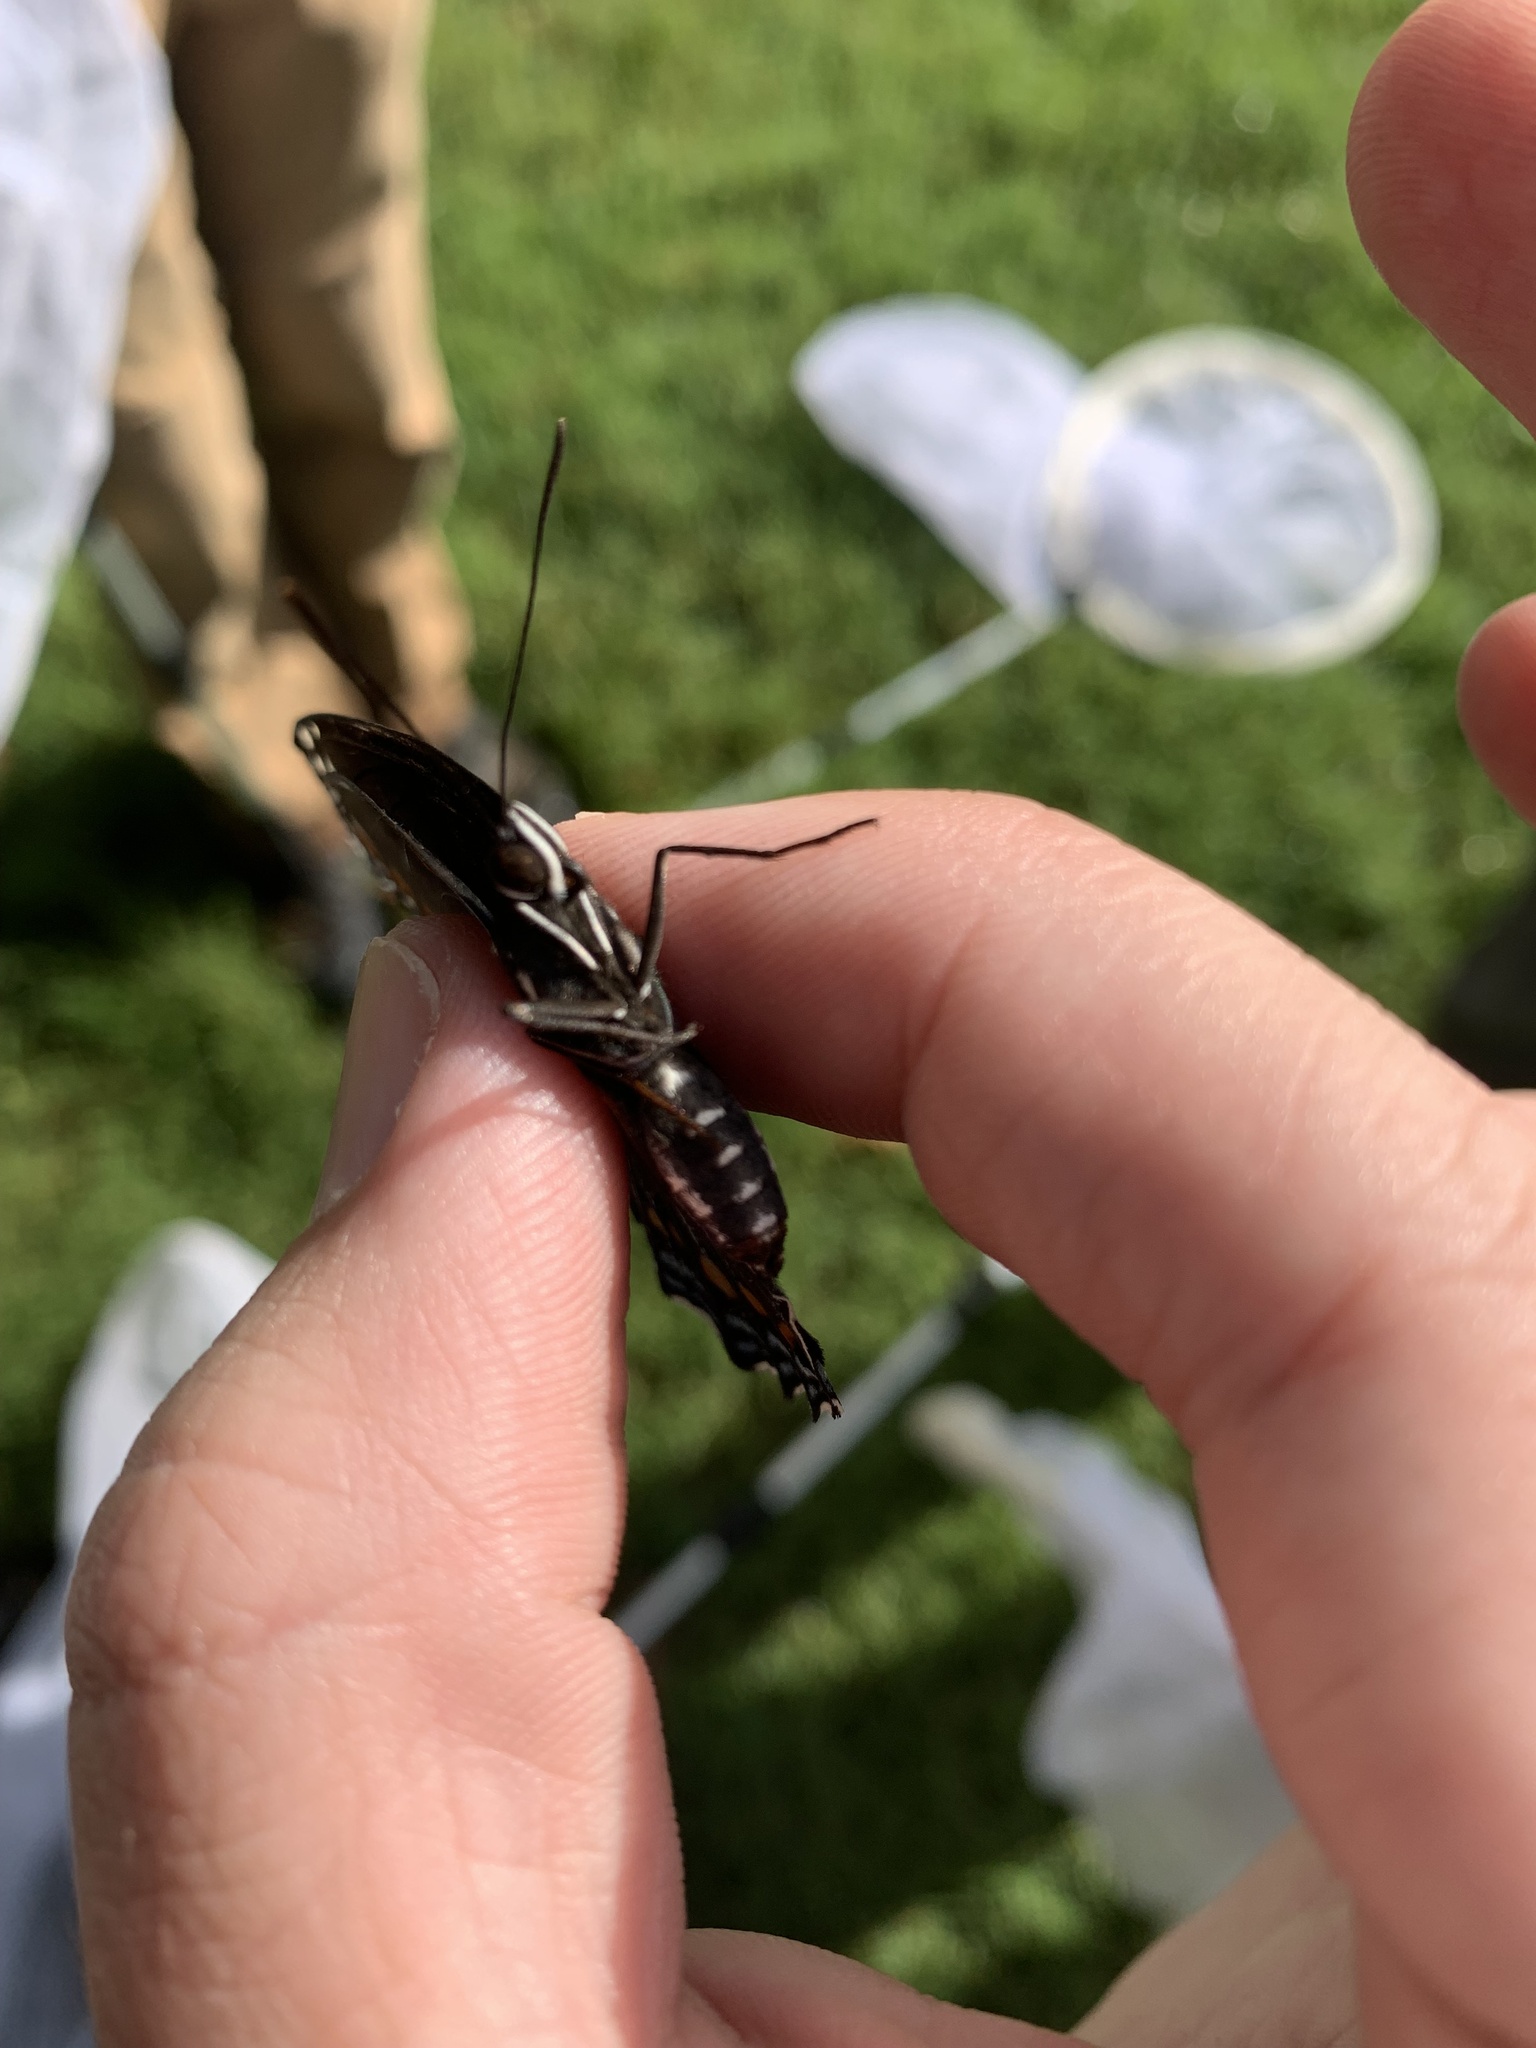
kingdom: Animalia
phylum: Arthropoda
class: Insecta
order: Lepidoptera
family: Nymphalidae
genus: Limenitis
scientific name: Limenitis astyanax
